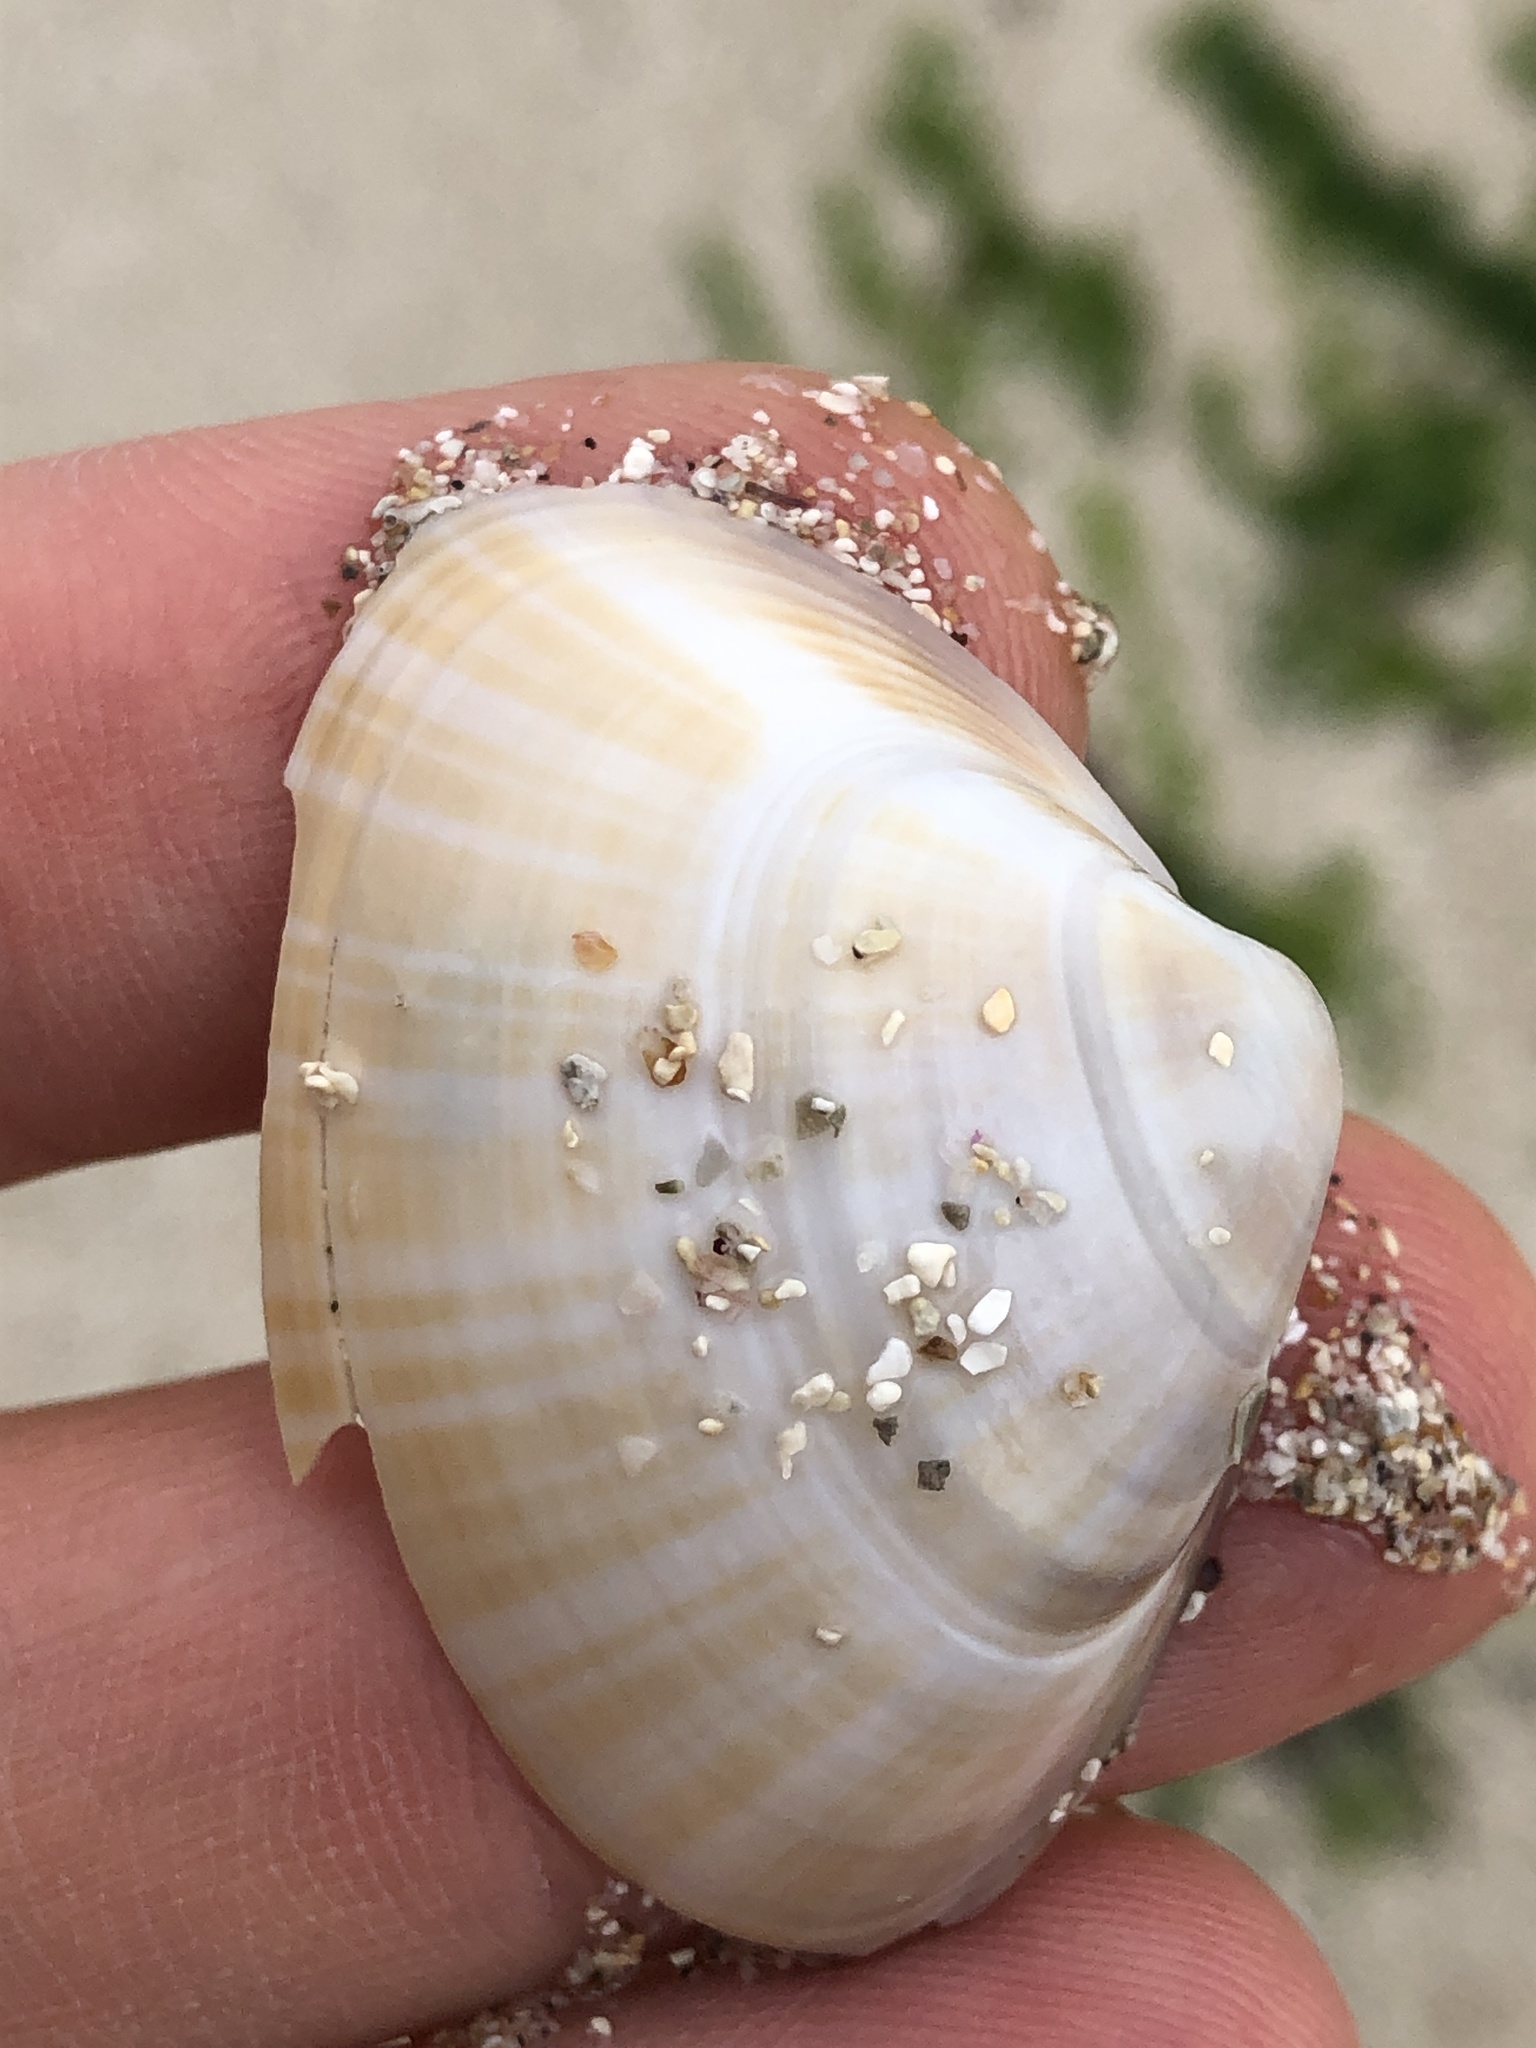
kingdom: Animalia
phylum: Mollusca
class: Bivalvia
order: Venerida
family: Mactridae
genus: Mactra
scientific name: Mactra chinensis
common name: Chinese surf clam
